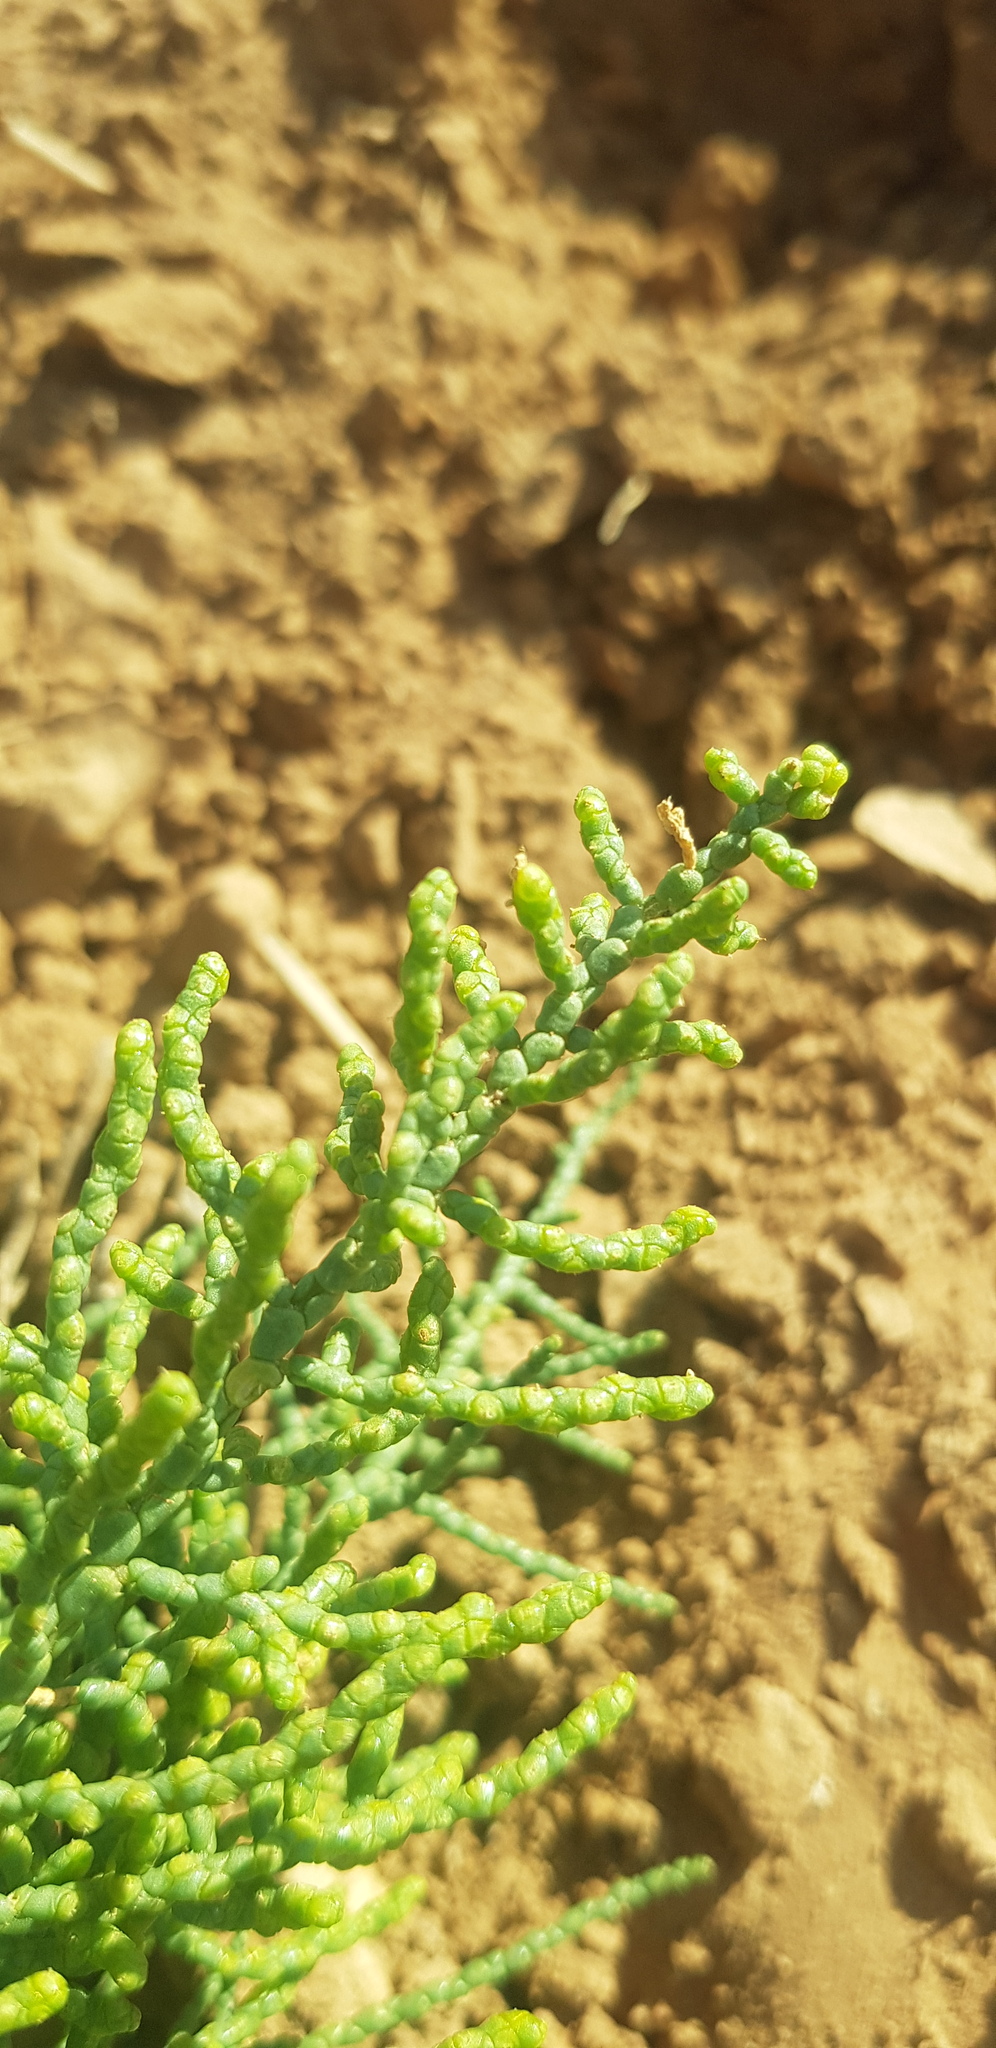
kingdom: Plantae
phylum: Tracheophyta
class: Magnoliopsida
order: Caryophyllales
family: Amaranthaceae
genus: Salicornia
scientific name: Salicornia perennans
